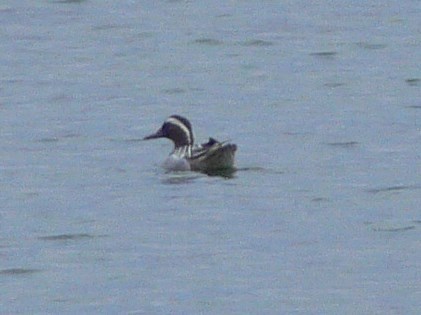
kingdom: Animalia
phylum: Chordata
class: Aves
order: Anseriformes
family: Anatidae
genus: Spatula
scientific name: Spatula querquedula
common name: Garganey
